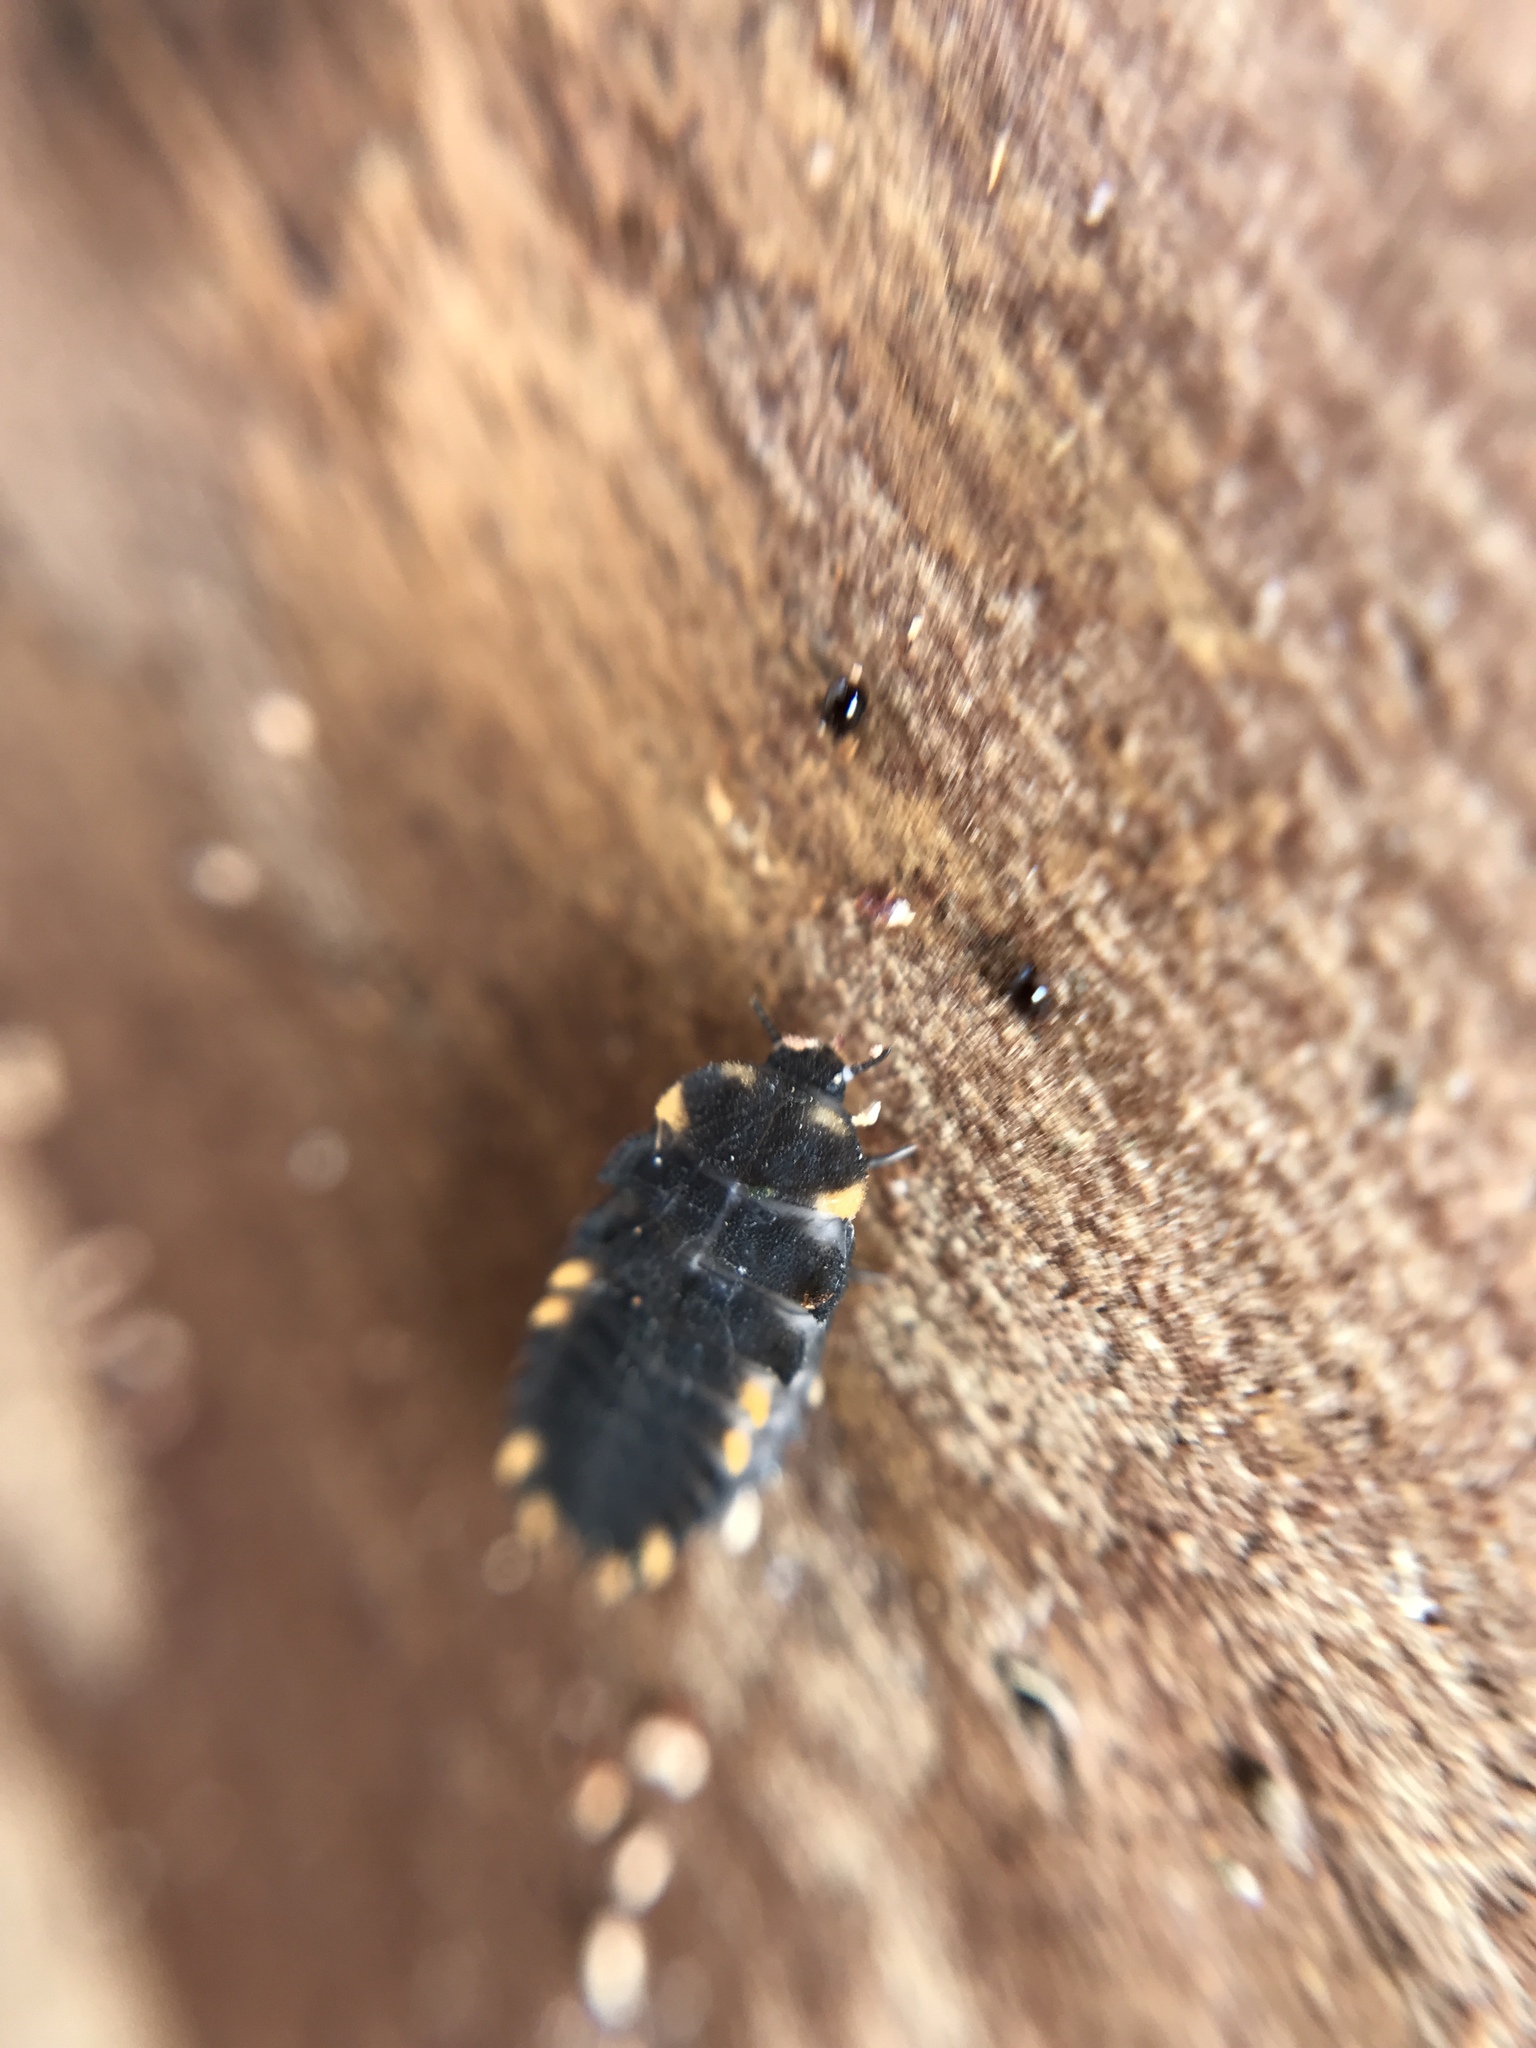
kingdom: Animalia
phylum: Arthropoda
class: Insecta
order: Coleoptera
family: Endomychidae
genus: Endomychus
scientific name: Endomychus coccineus
